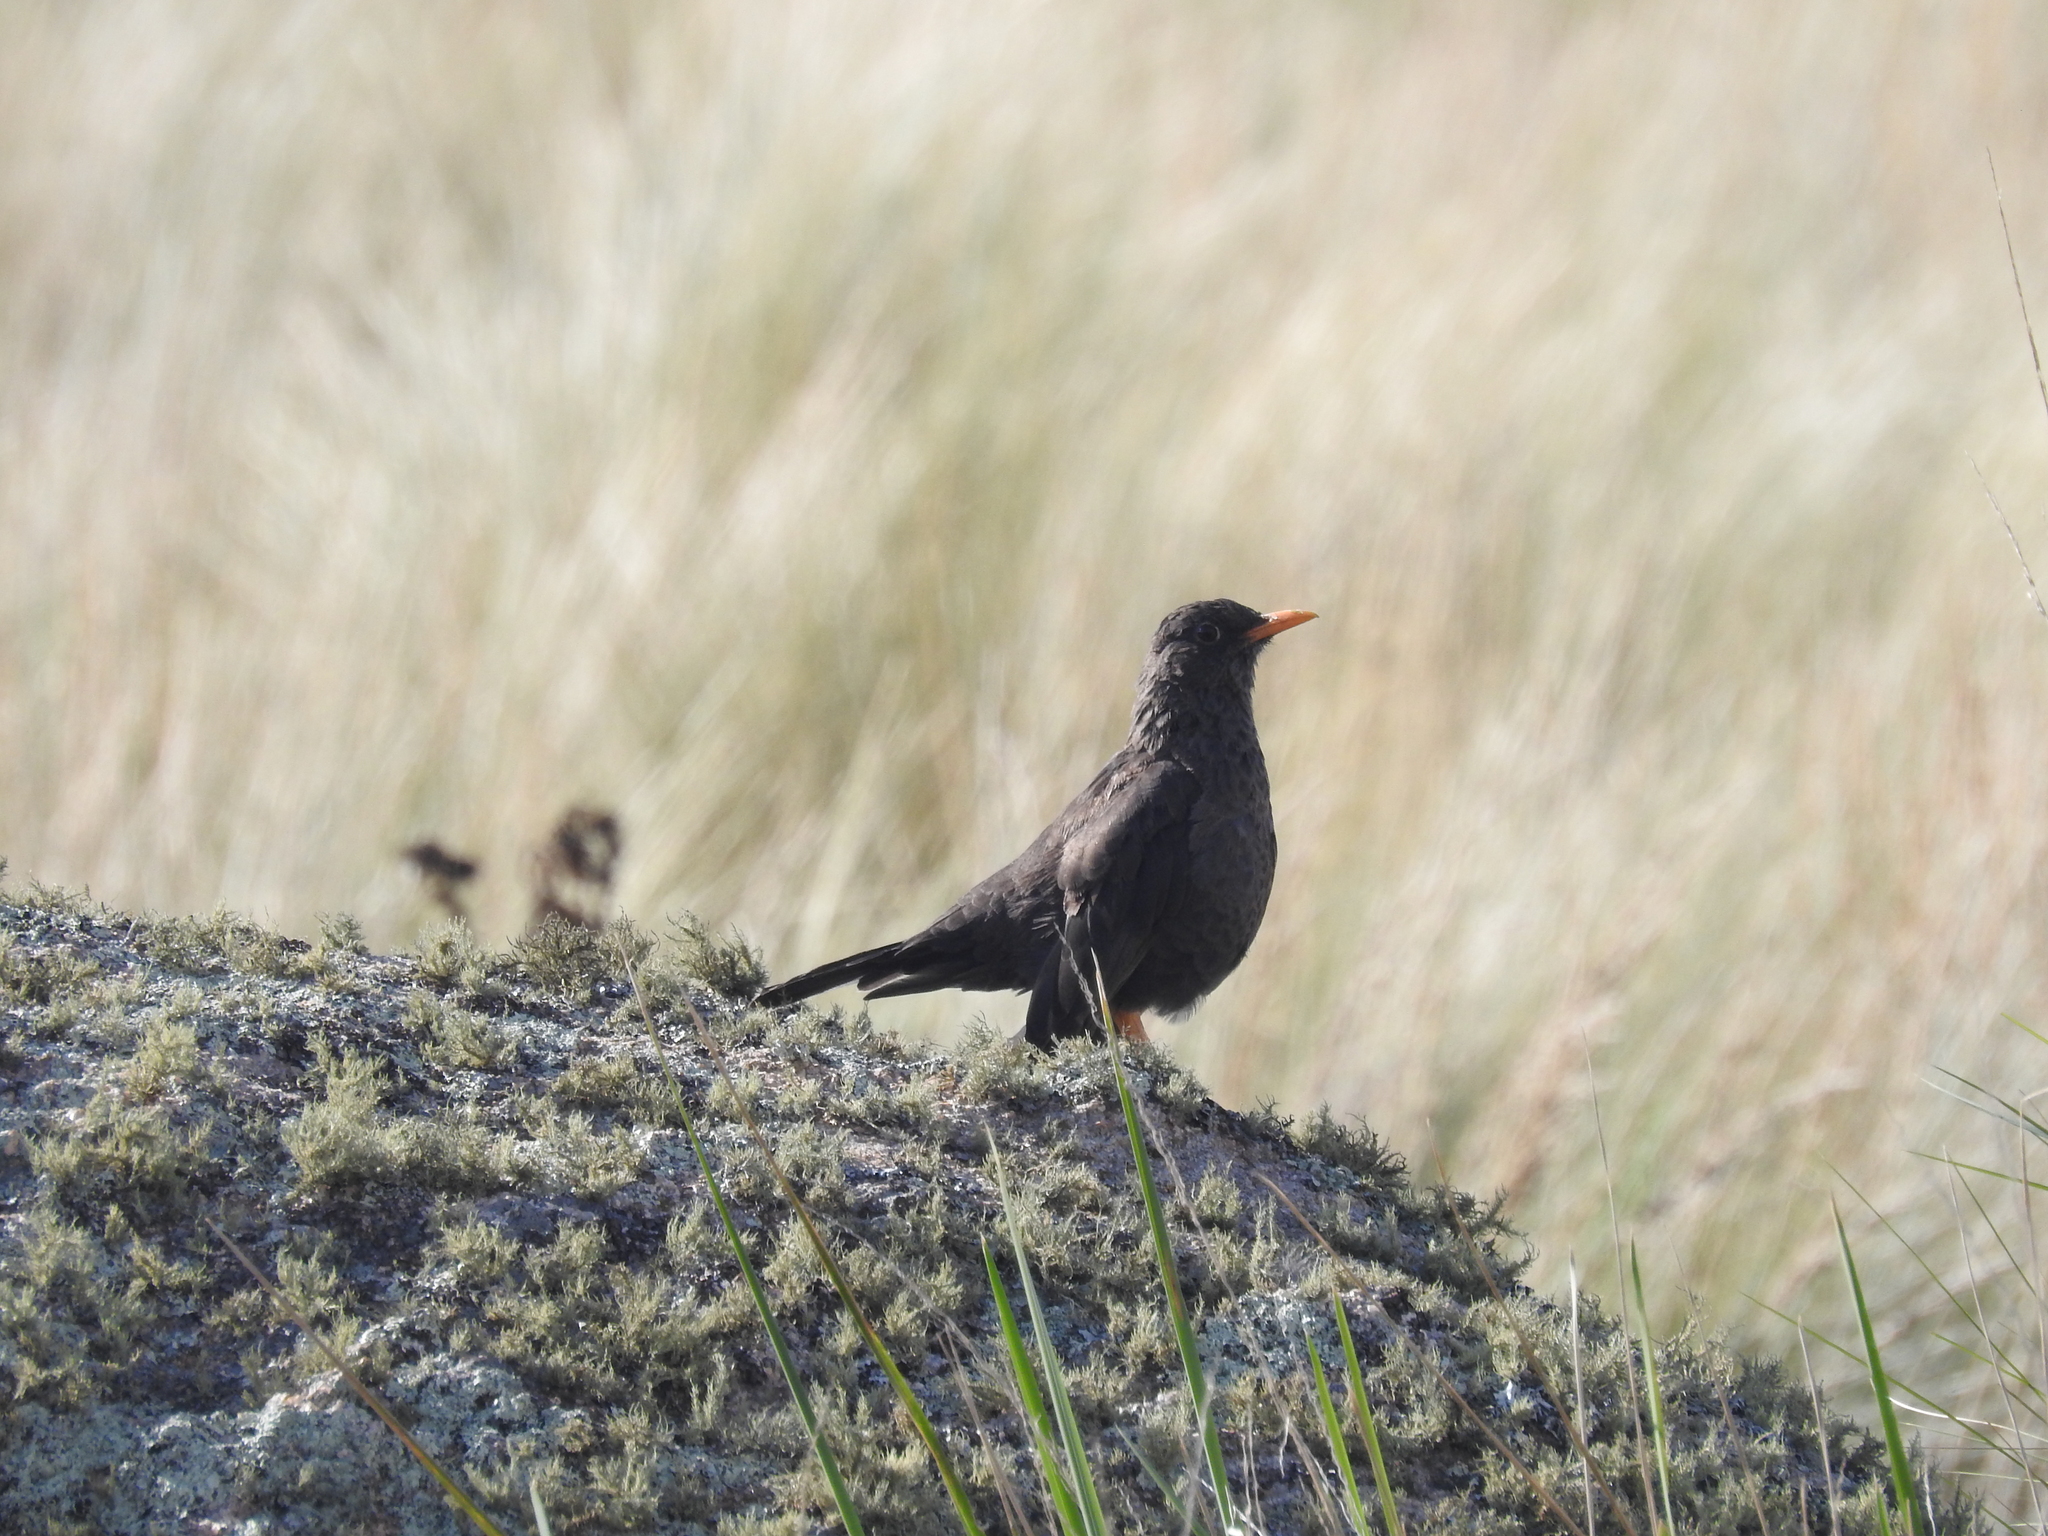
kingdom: Animalia
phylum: Chordata
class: Aves
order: Passeriformes
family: Turdidae
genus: Turdus
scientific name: Turdus chiguanco
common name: Chiguanco thrush
